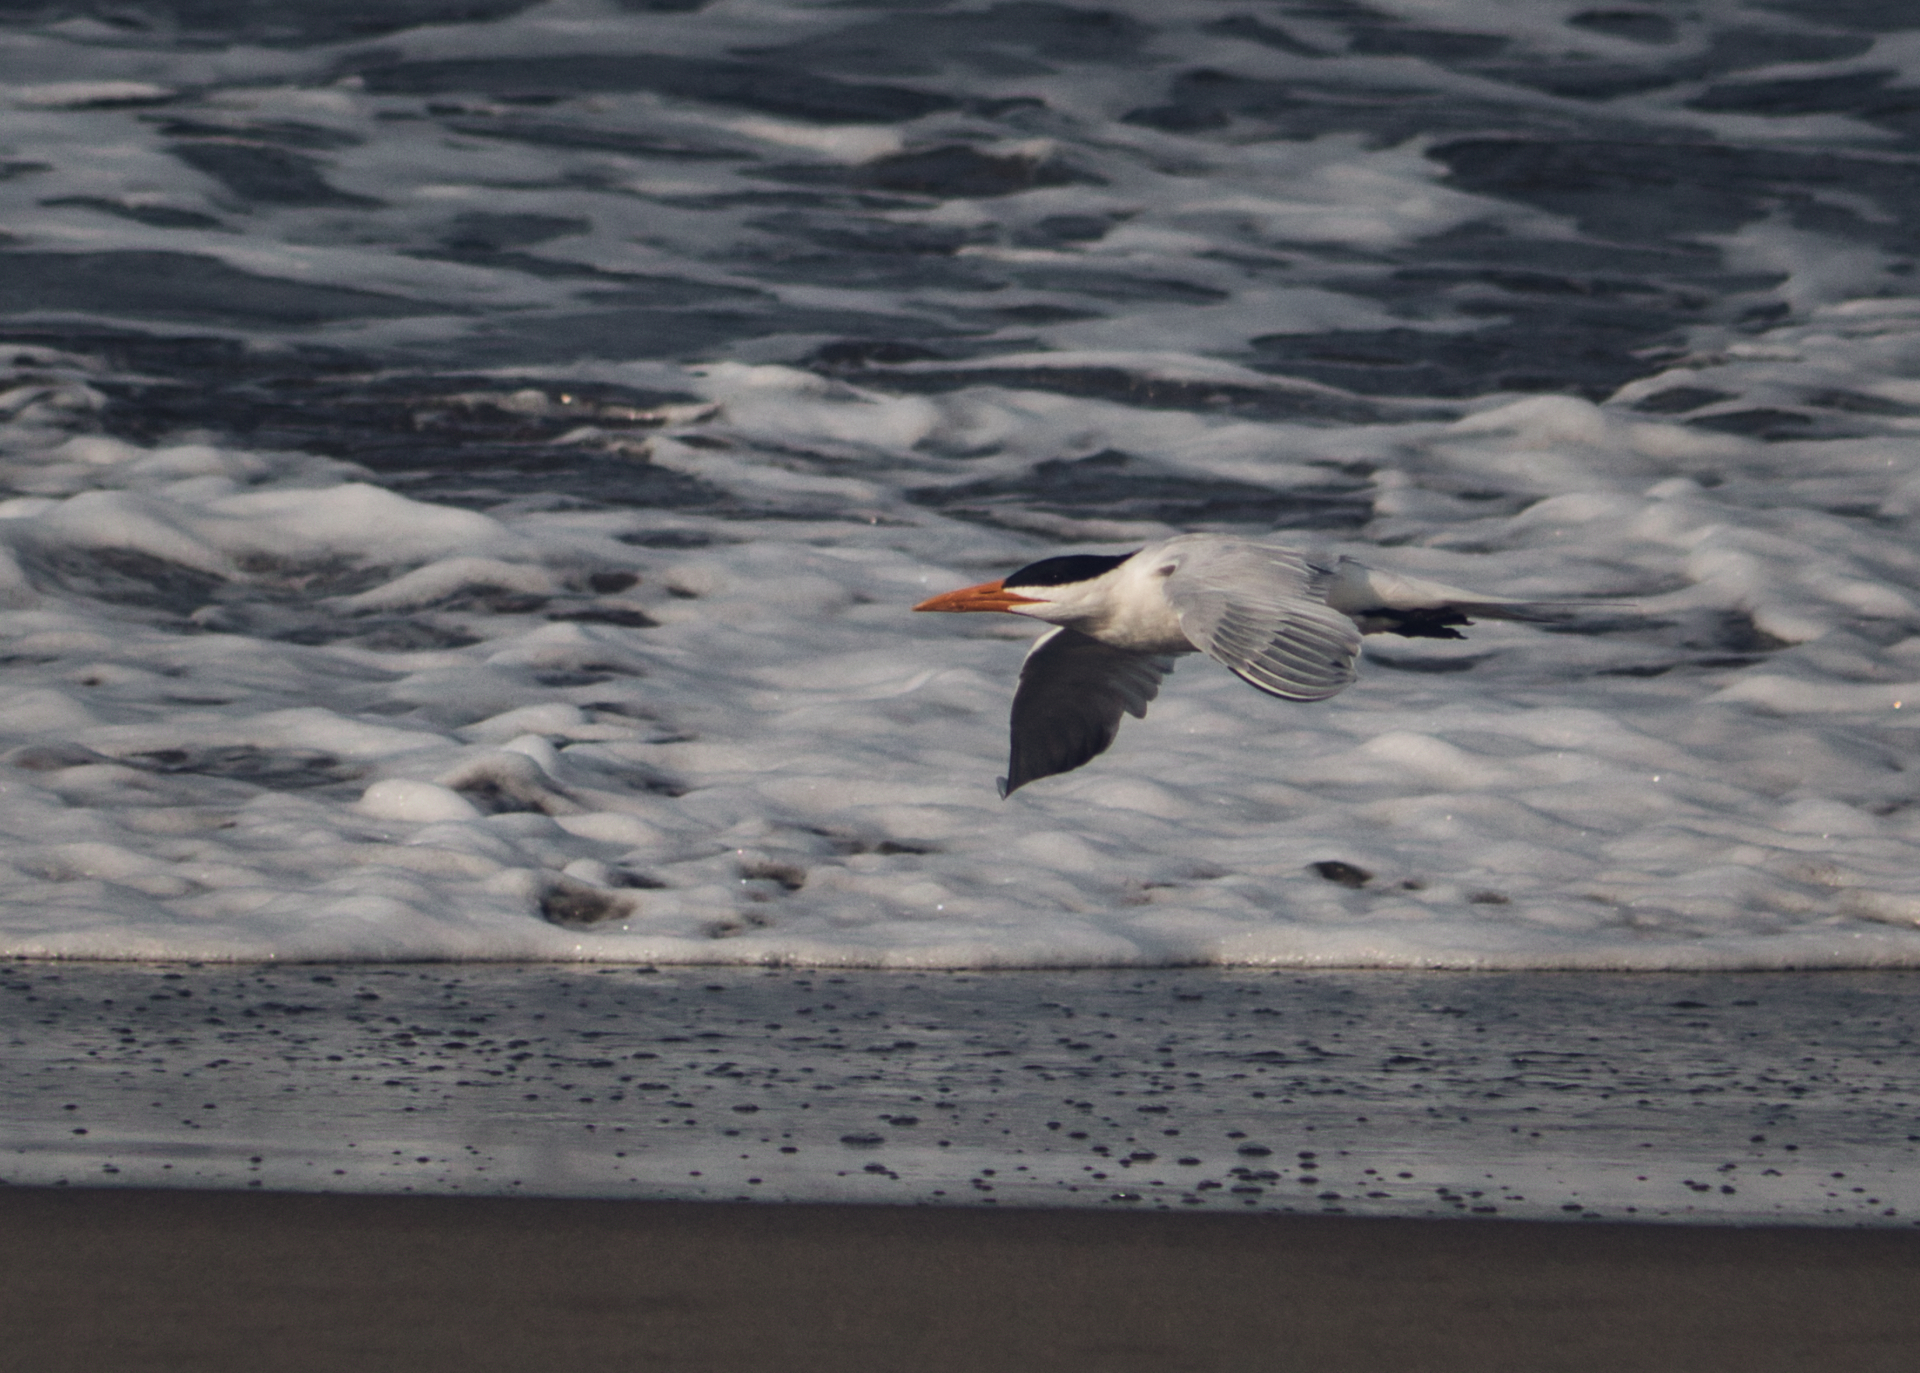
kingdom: Animalia
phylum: Chordata
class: Aves
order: Charadriiformes
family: Laridae
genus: Thalasseus
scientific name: Thalasseus maximus
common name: Royal tern
